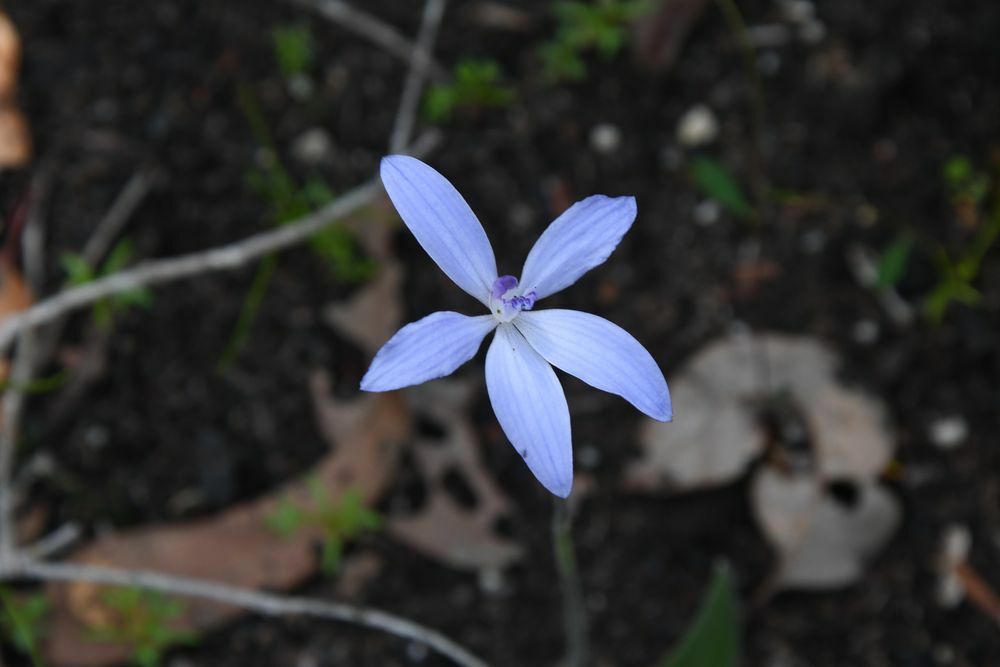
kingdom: Plantae
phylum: Tracheophyta
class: Liliopsida
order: Asparagales
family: Orchidaceae
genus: Caladenia
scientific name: Caladenia sericea
